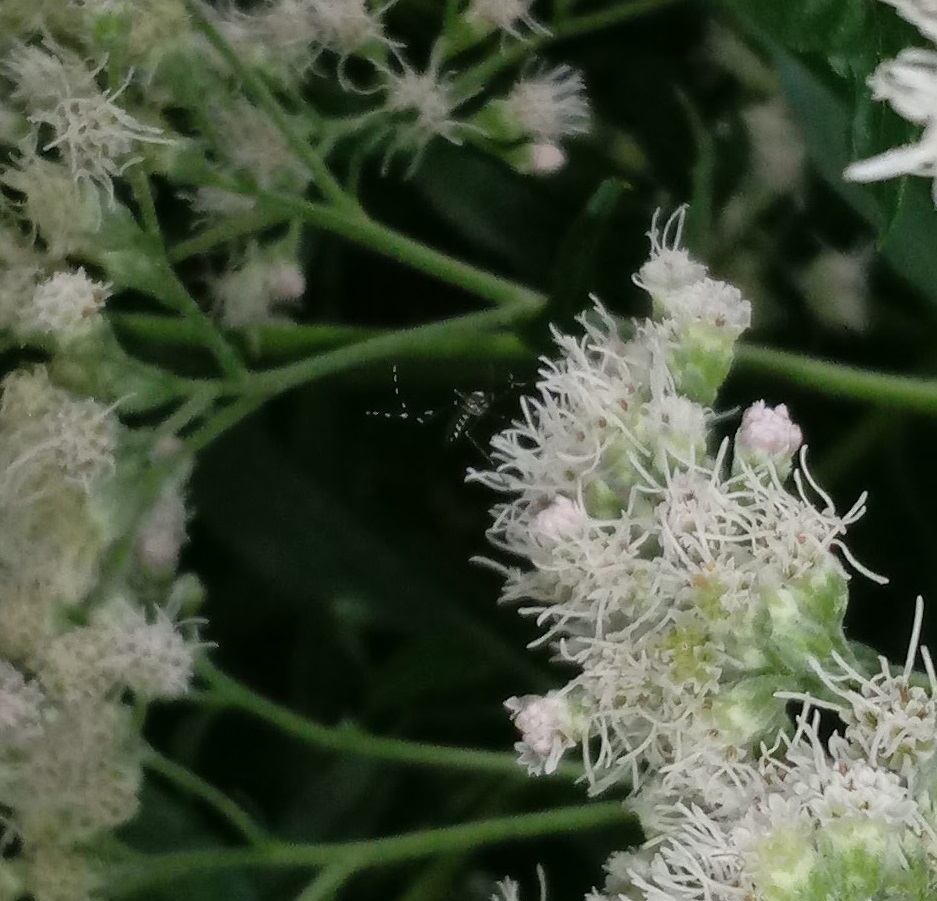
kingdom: Animalia
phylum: Arthropoda
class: Insecta
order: Diptera
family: Culicidae
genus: Aedes
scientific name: Aedes albopictus
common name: Tiger mosquito
